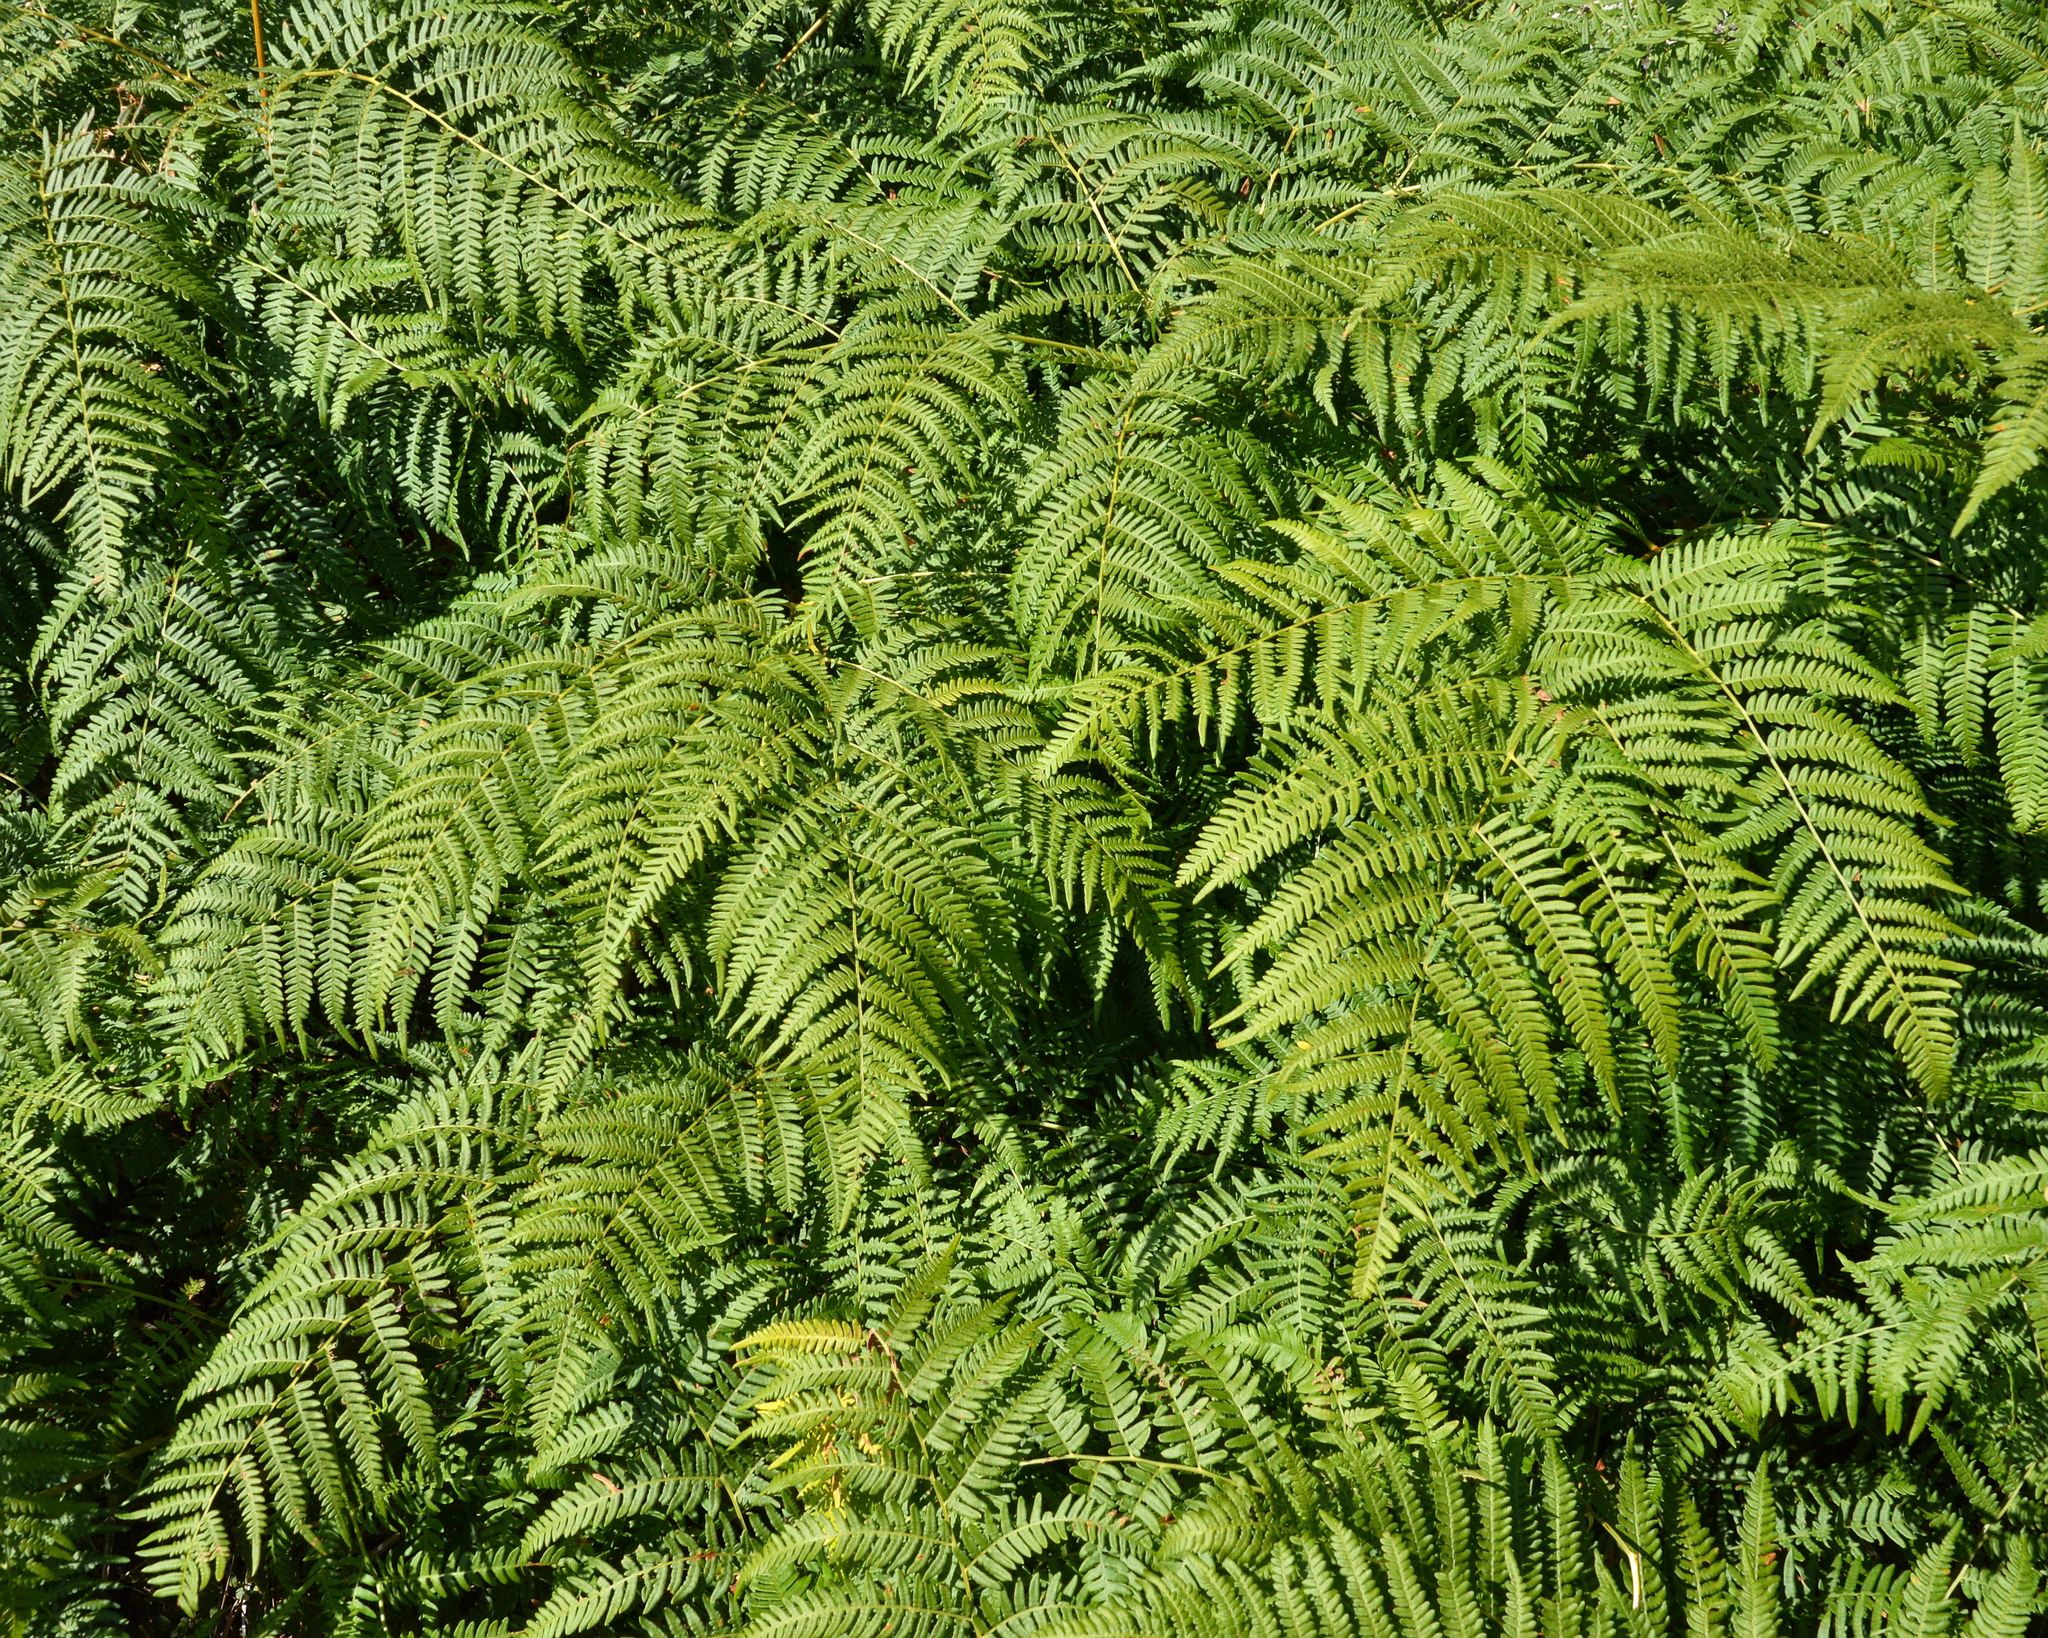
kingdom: Plantae
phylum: Tracheophyta
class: Polypodiopsida
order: Polypodiales
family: Dennstaedtiaceae
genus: Pteridium
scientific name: Pteridium aquilinum
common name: Bracken
